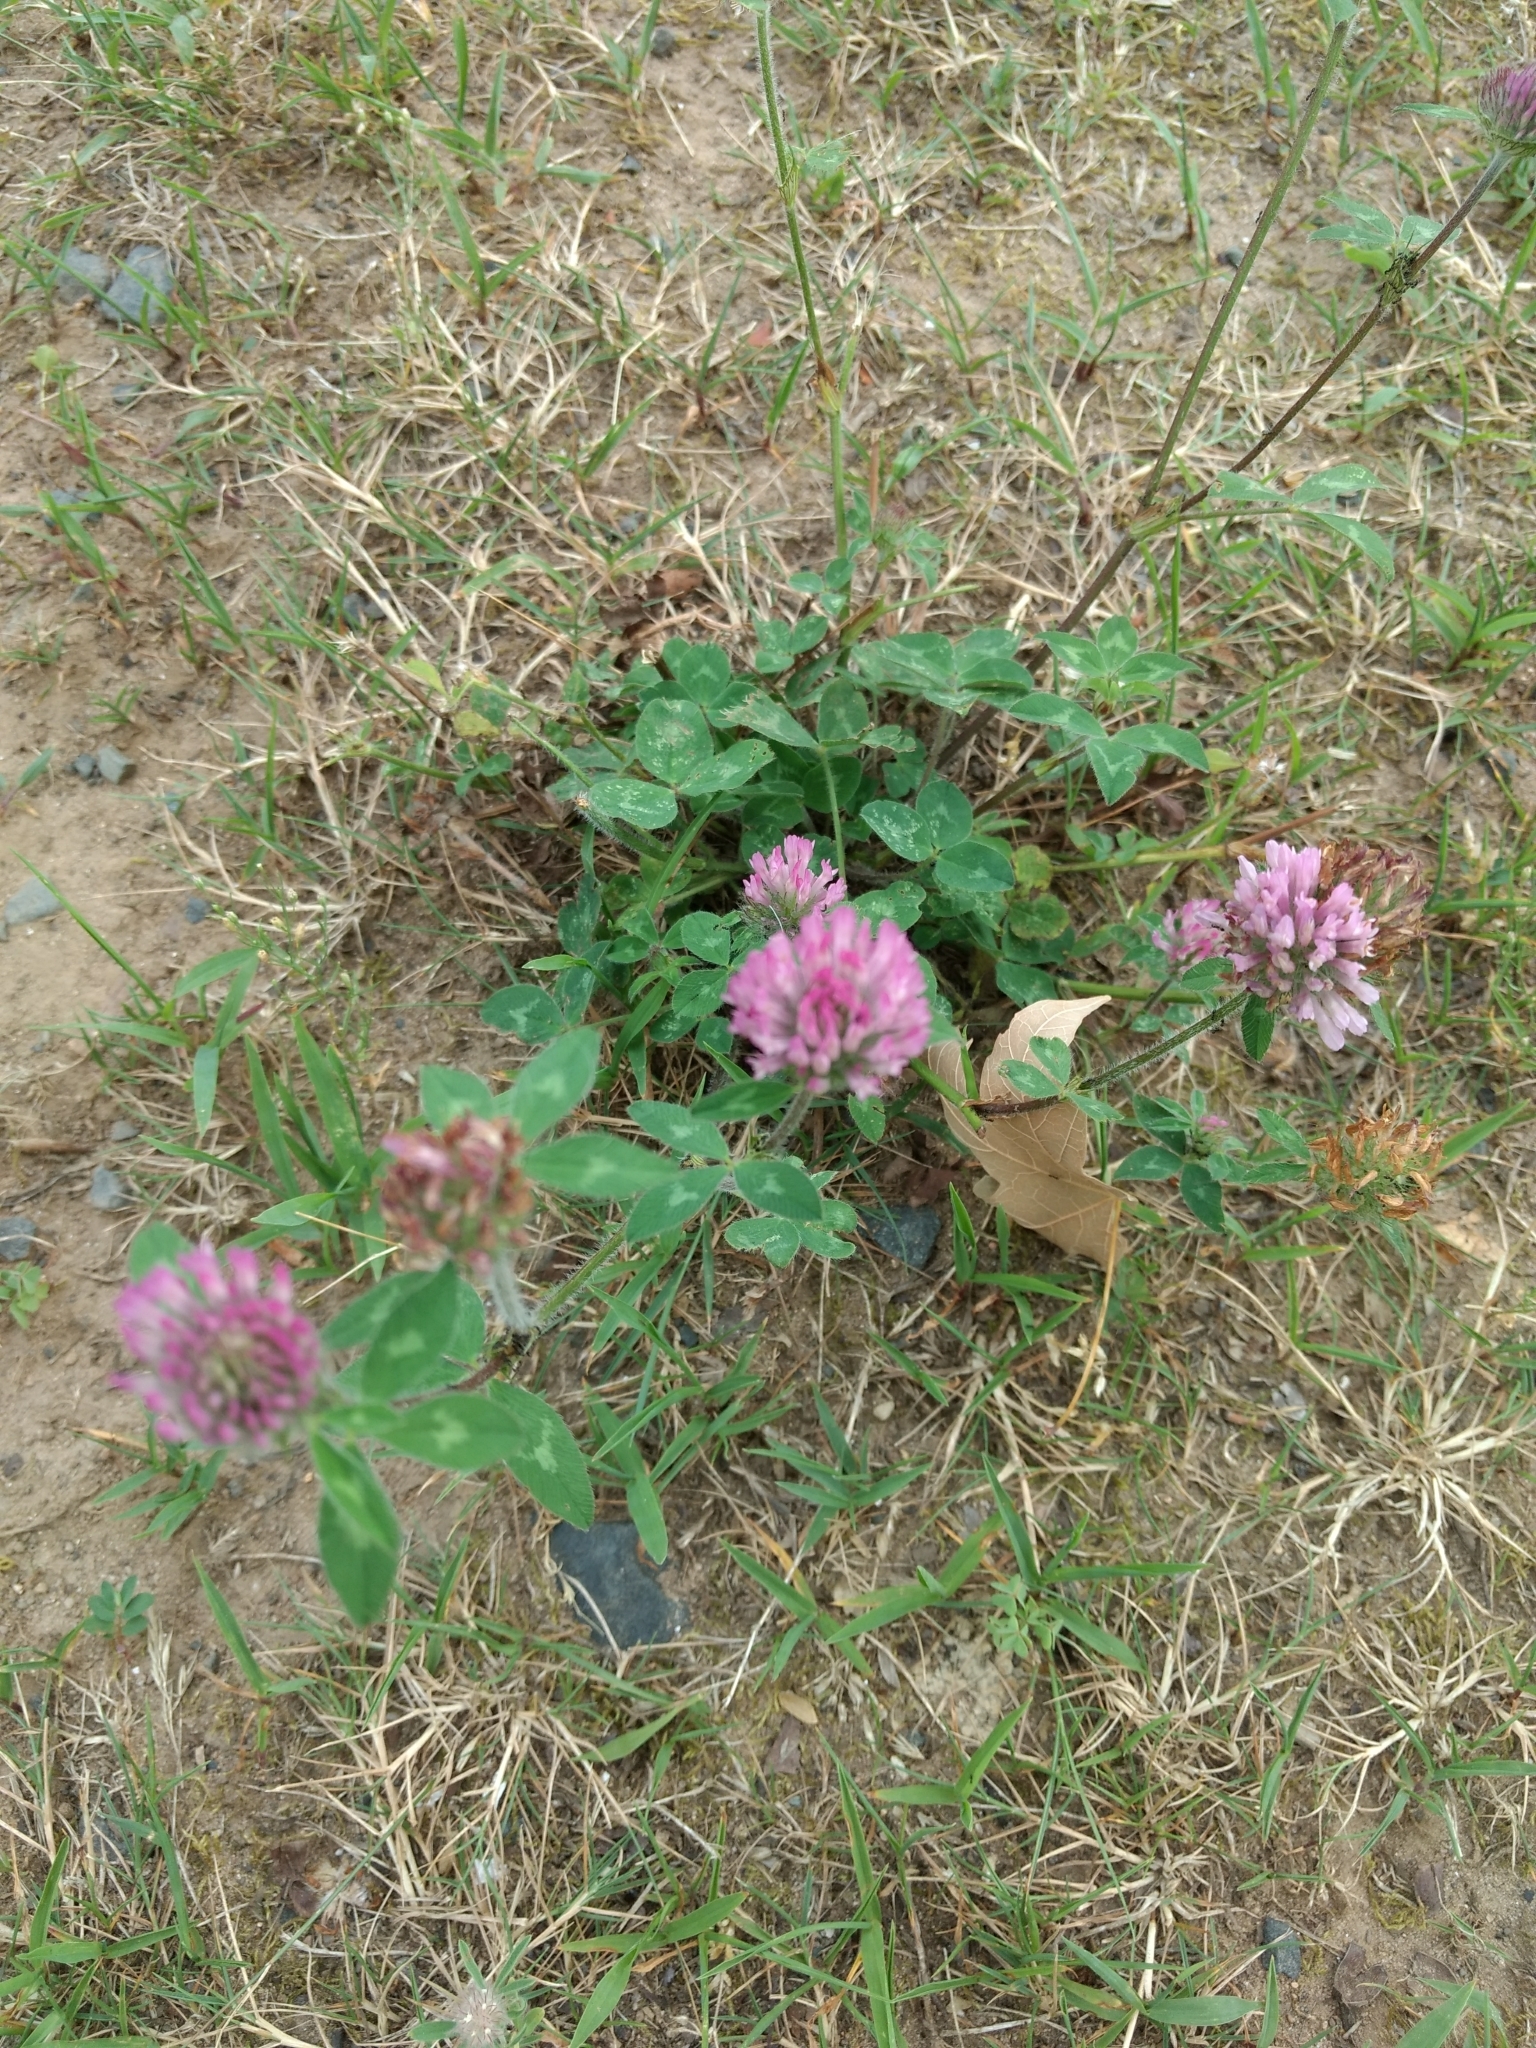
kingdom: Plantae
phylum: Tracheophyta
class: Magnoliopsida
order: Fabales
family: Fabaceae
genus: Trifolium
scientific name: Trifolium pratense
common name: Red clover
